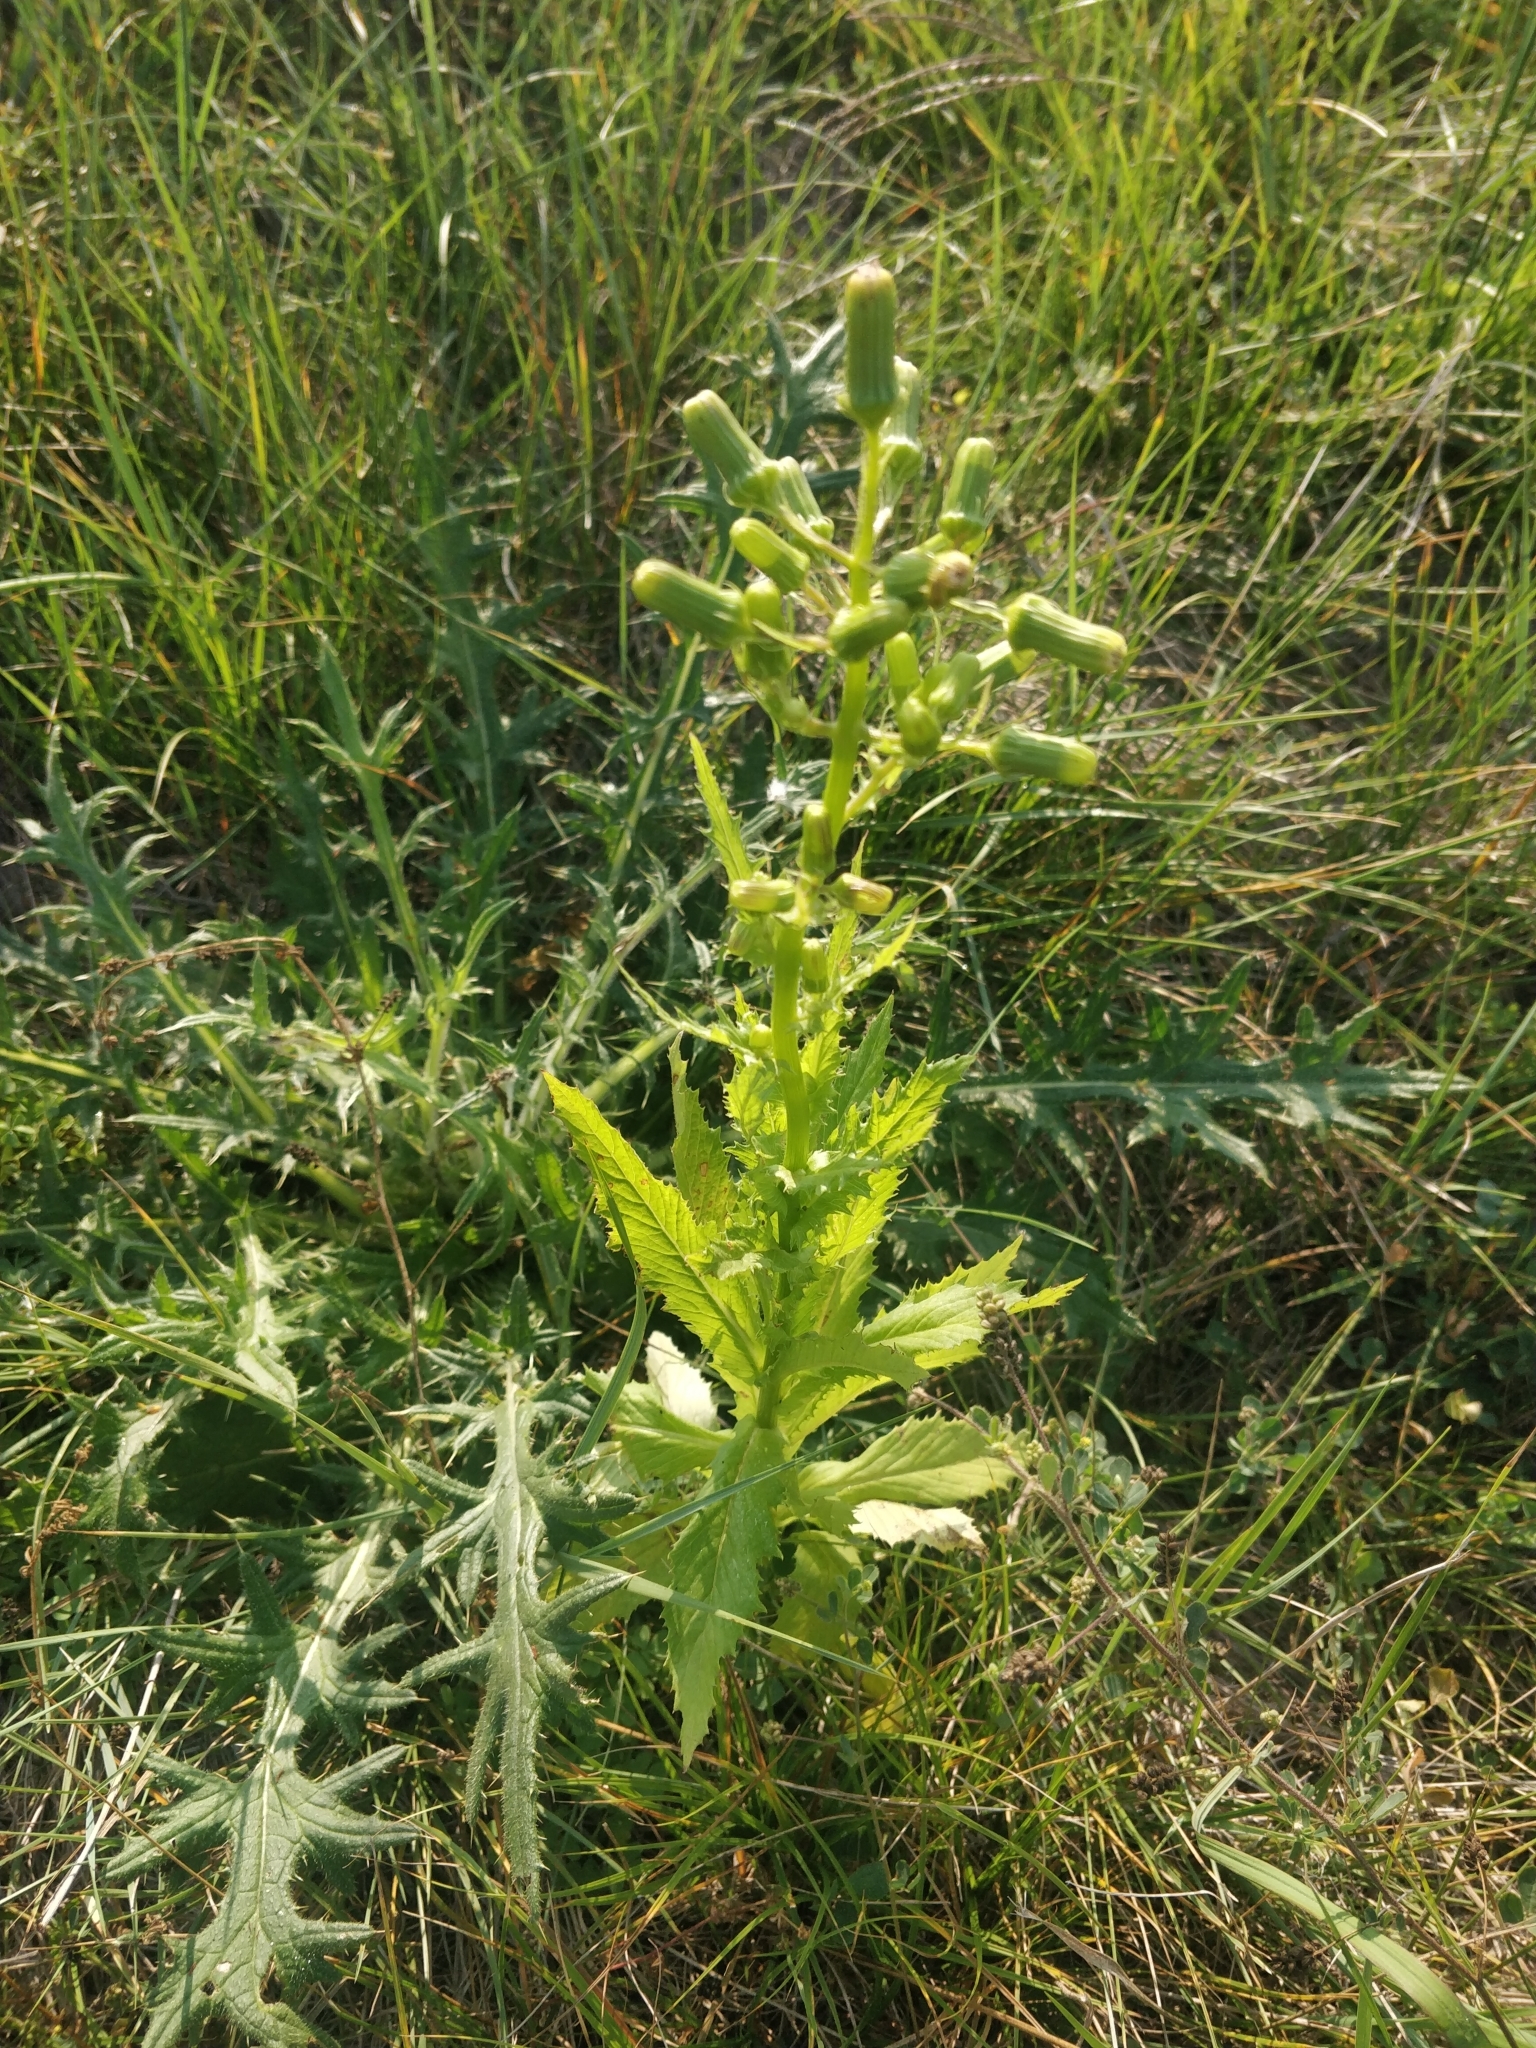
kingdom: Plantae
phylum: Tracheophyta
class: Magnoliopsida
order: Asterales
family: Asteraceae
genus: Erechtites
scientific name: Erechtites hieraciifolius
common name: American burnweed
